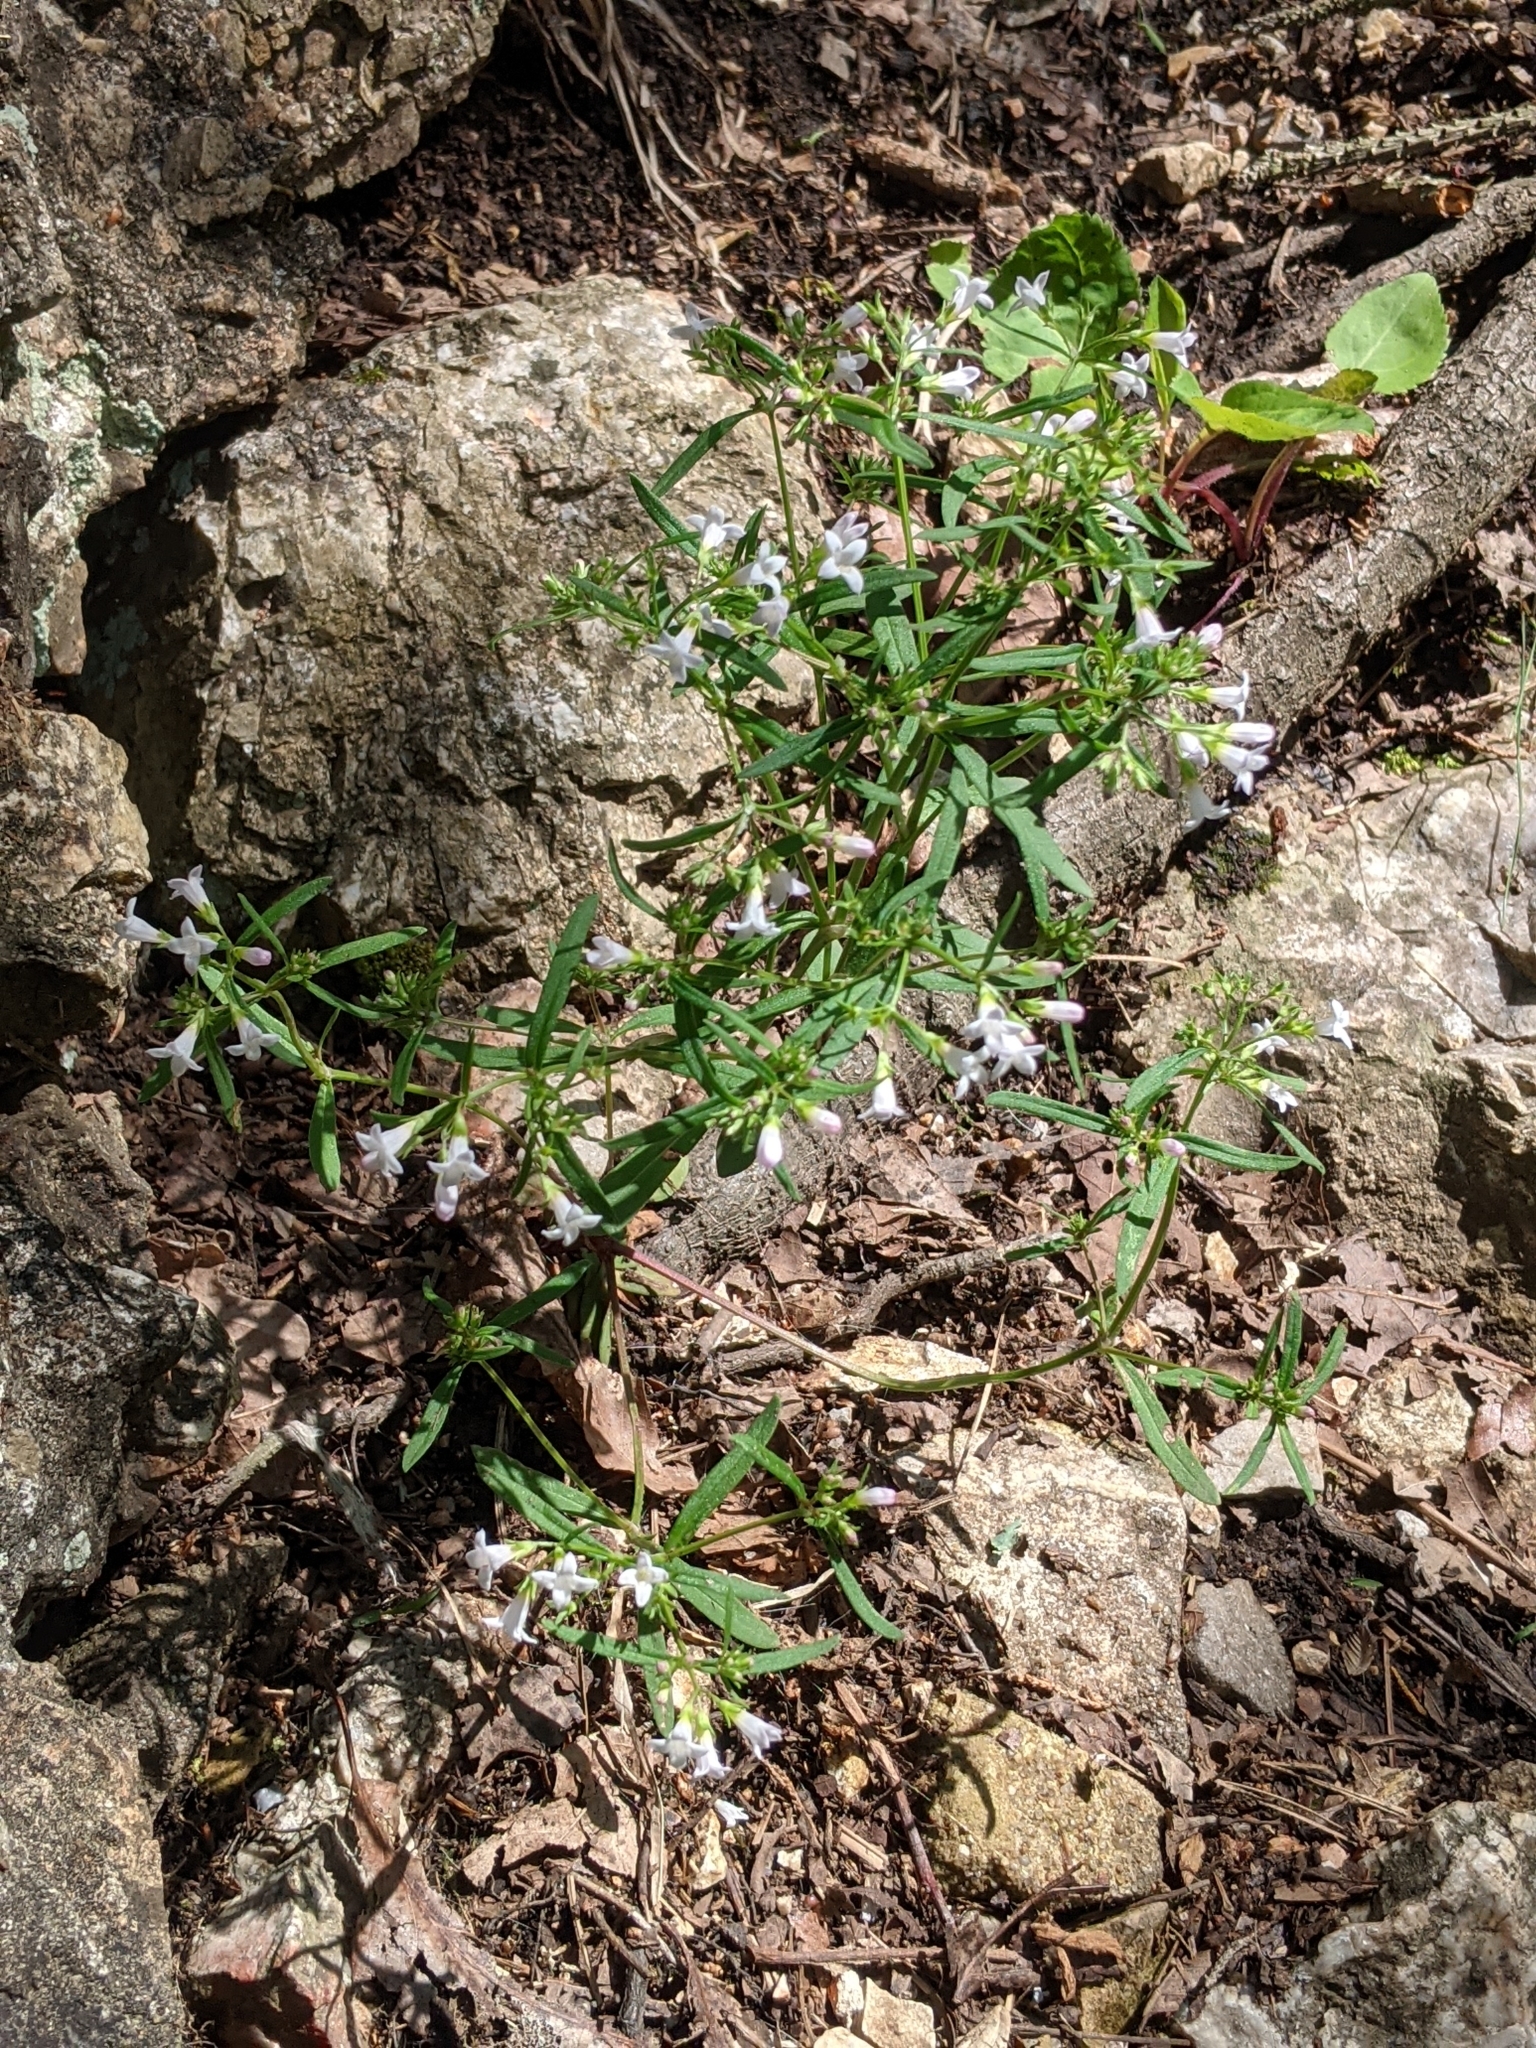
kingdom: Plantae
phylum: Tracheophyta
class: Magnoliopsida
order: Gentianales
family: Rubiaceae
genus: Houstonia
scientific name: Houstonia longifolia
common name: Long-leaved bluets
